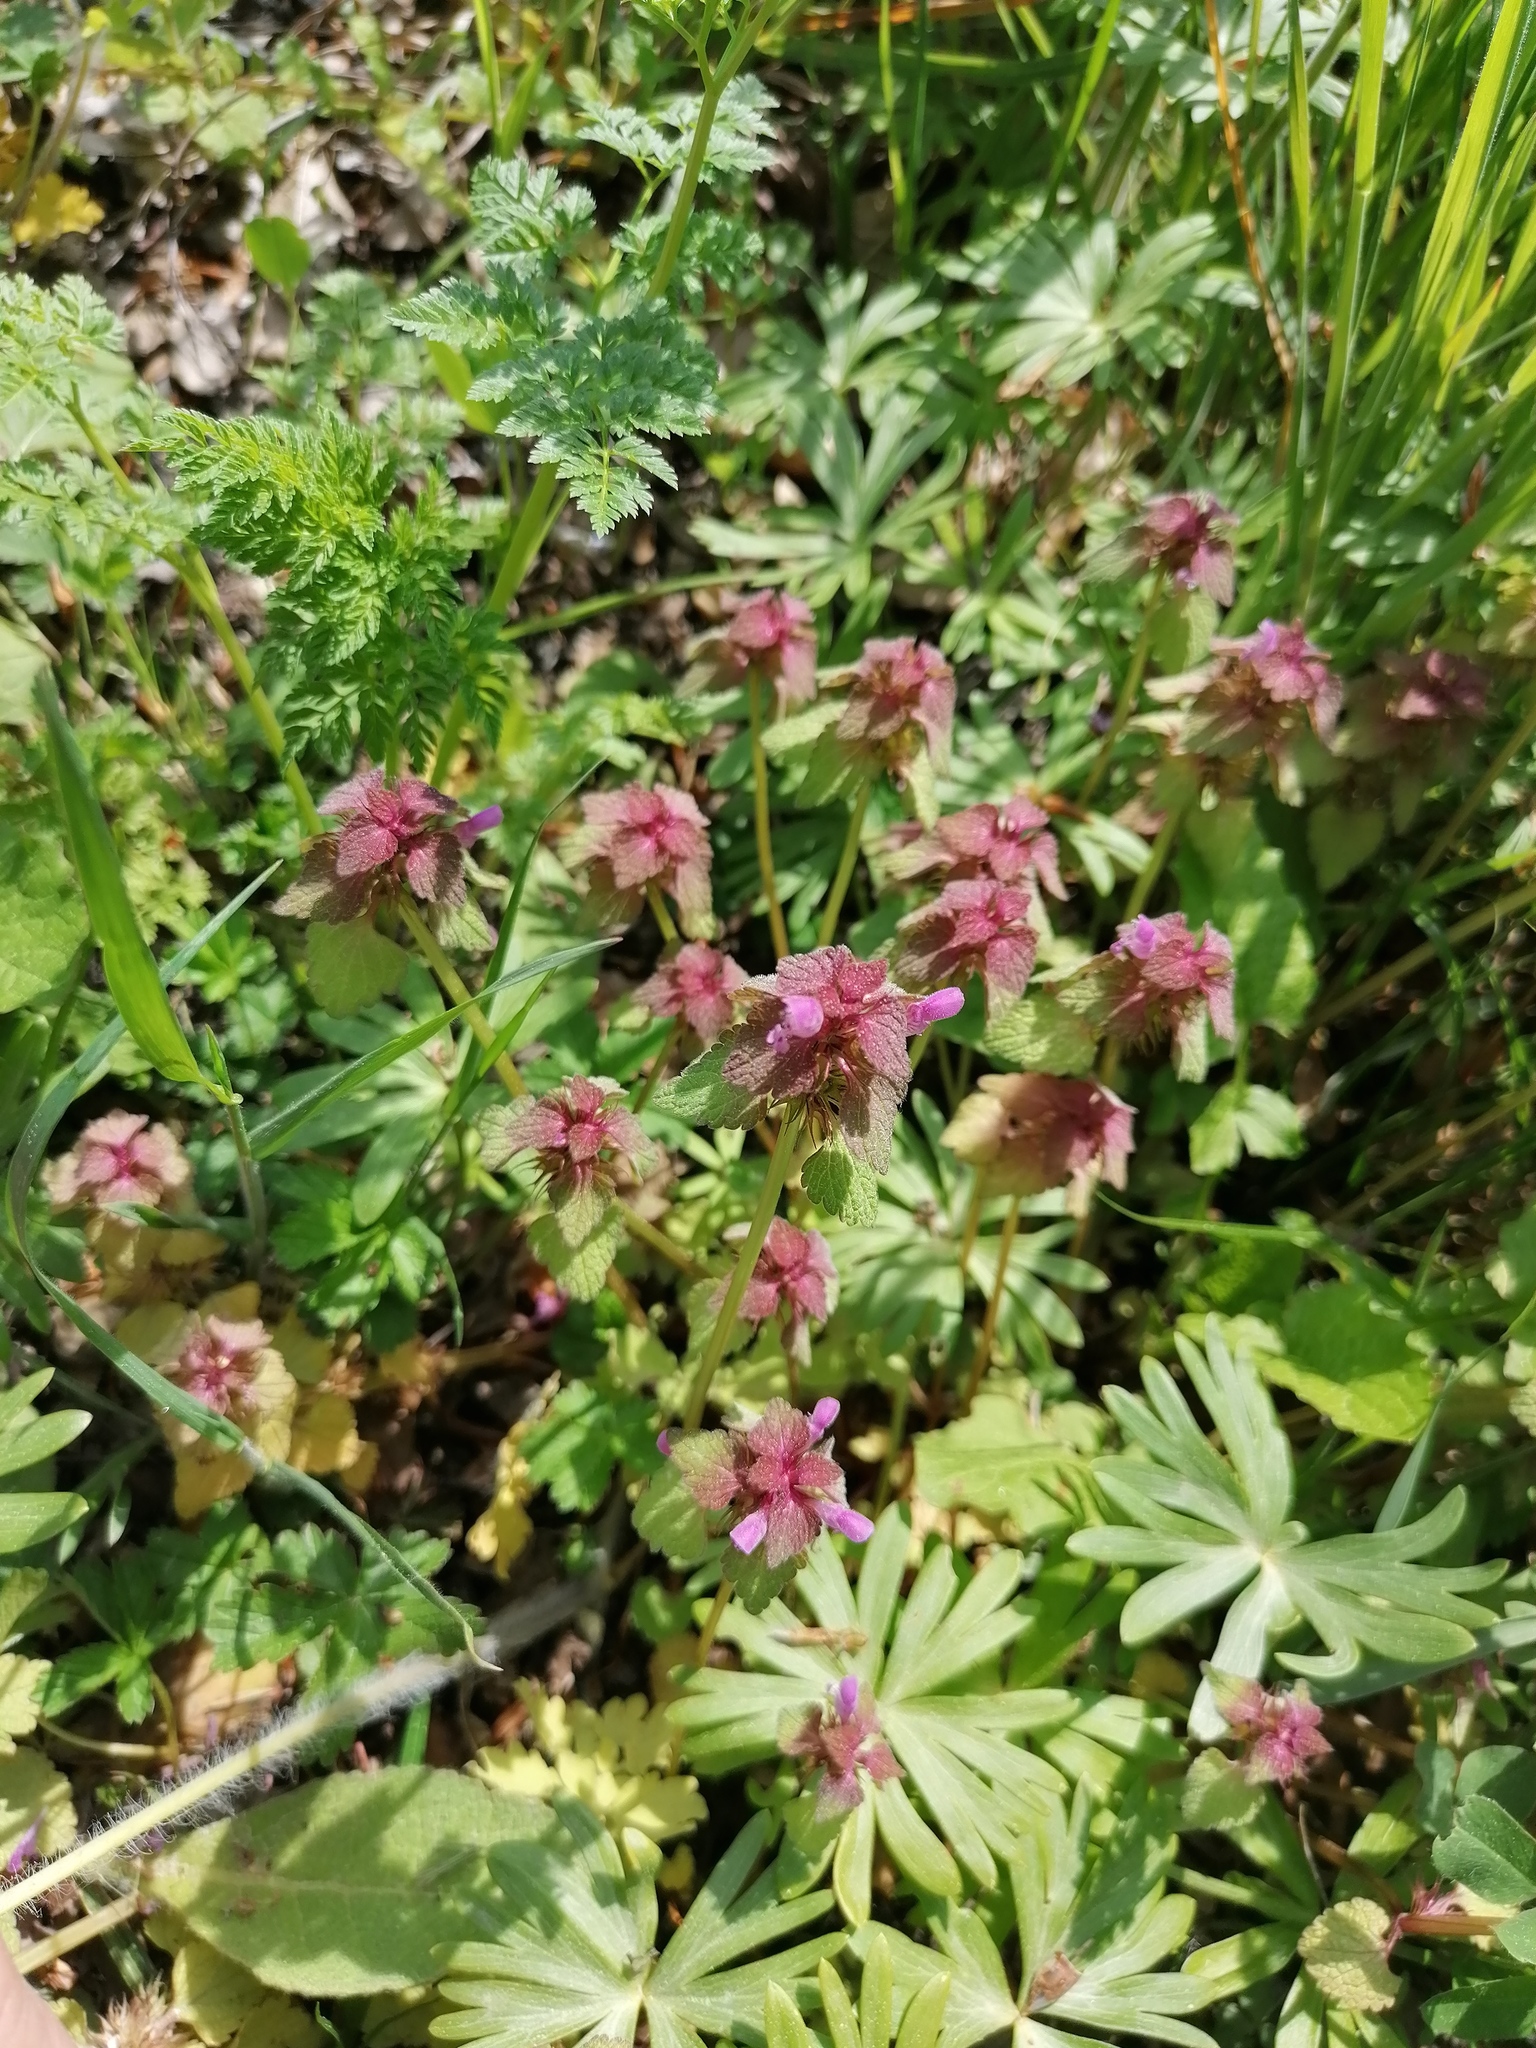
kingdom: Plantae
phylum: Tracheophyta
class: Magnoliopsida
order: Lamiales
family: Lamiaceae
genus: Lamium
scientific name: Lamium purpureum
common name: Red dead-nettle
